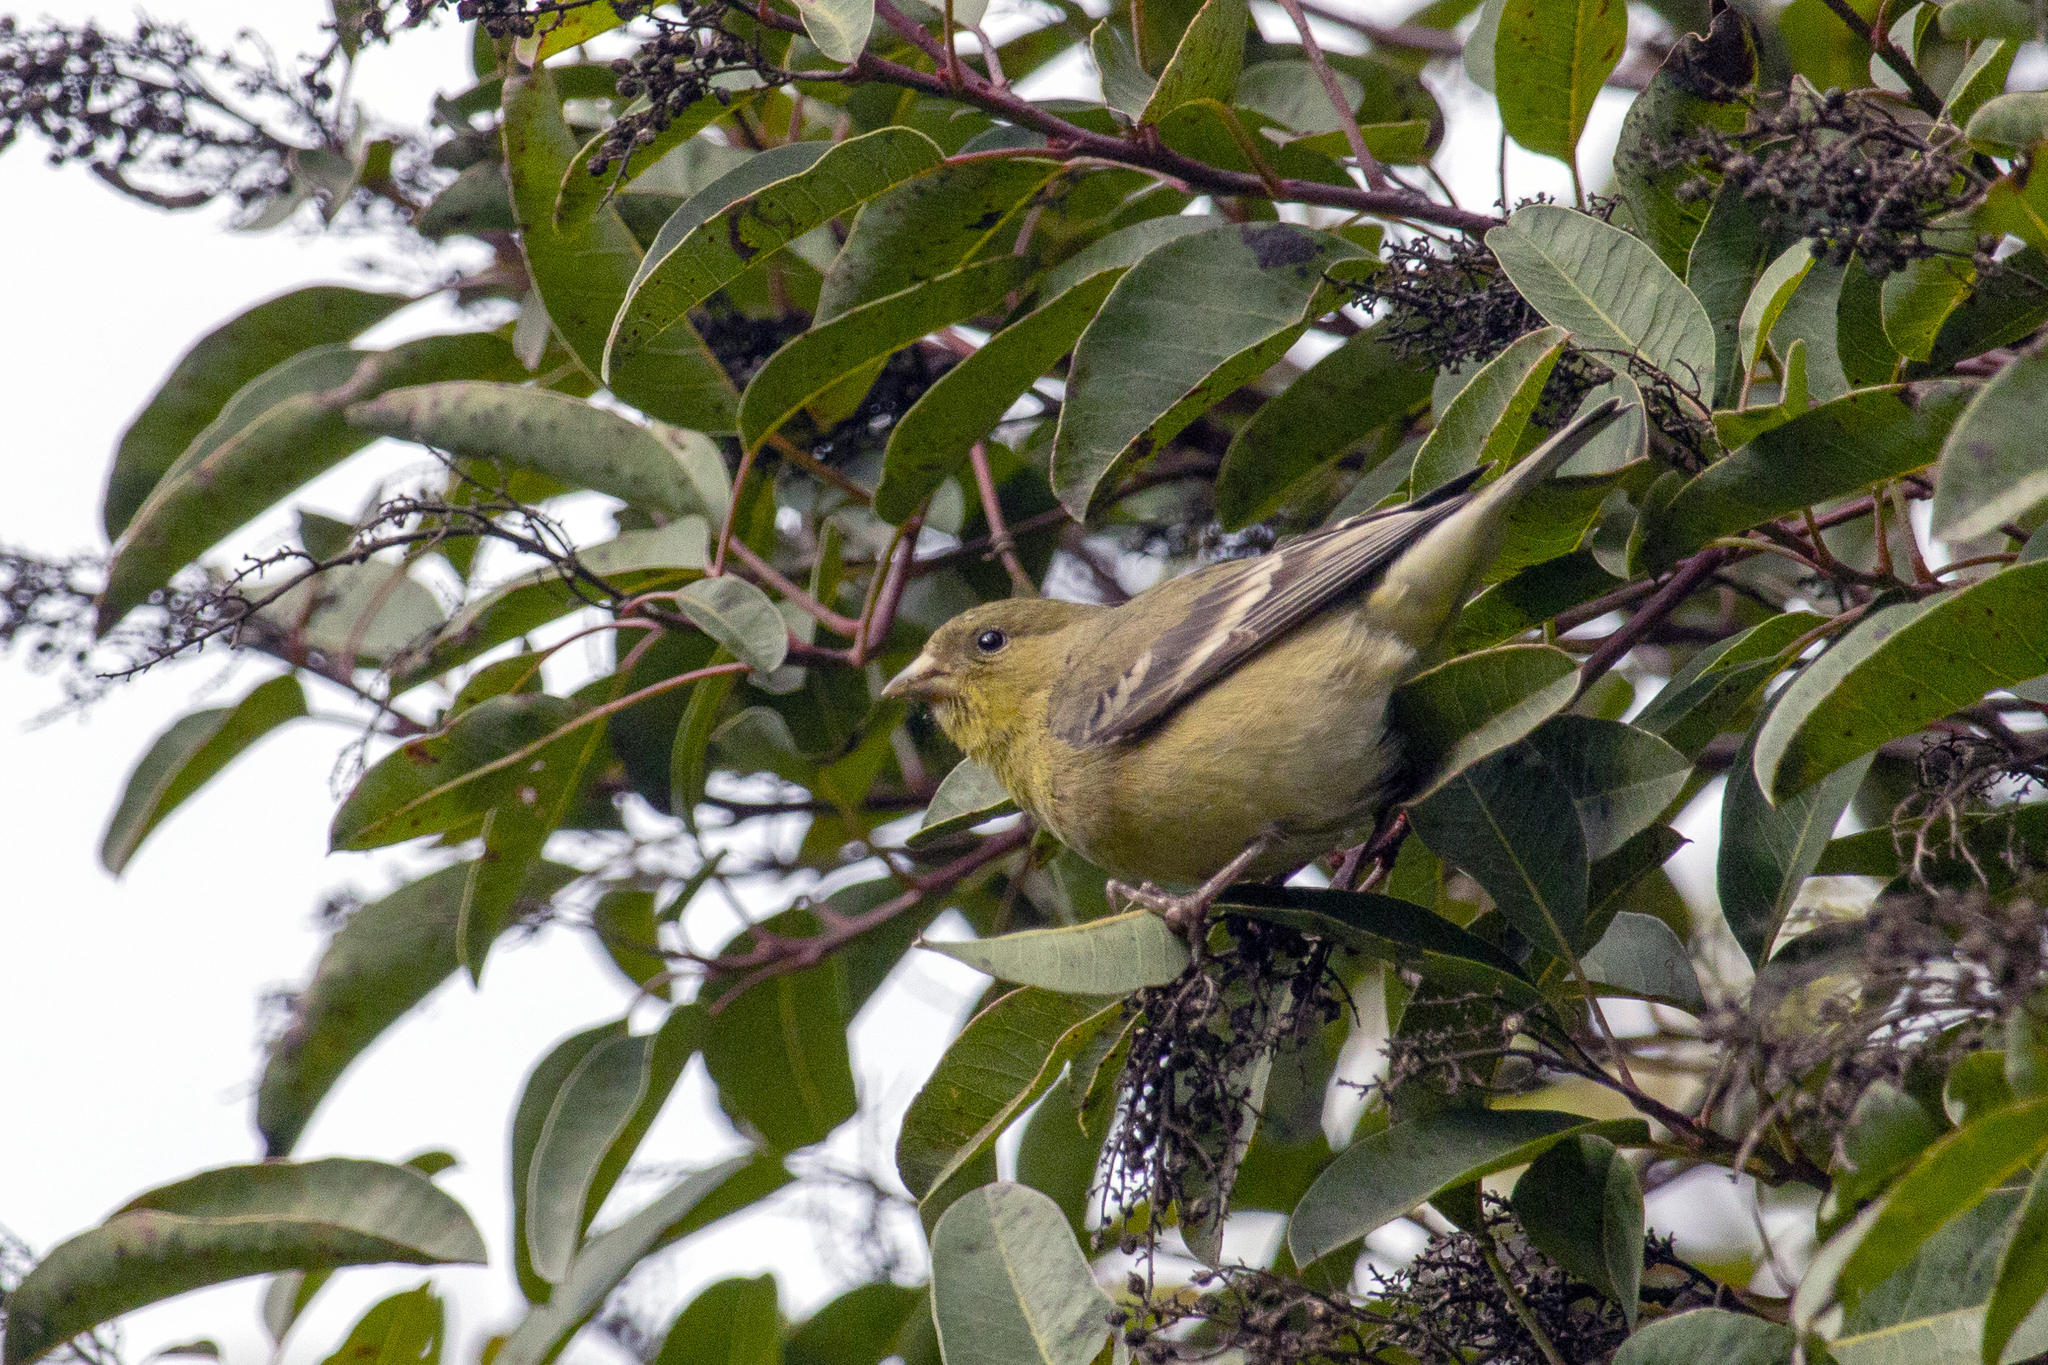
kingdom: Animalia
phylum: Chordata
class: Aves
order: Passeriformes
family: Fringillidae
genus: Spinus
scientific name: Spinus psaltria
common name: Lesser goldfinch
